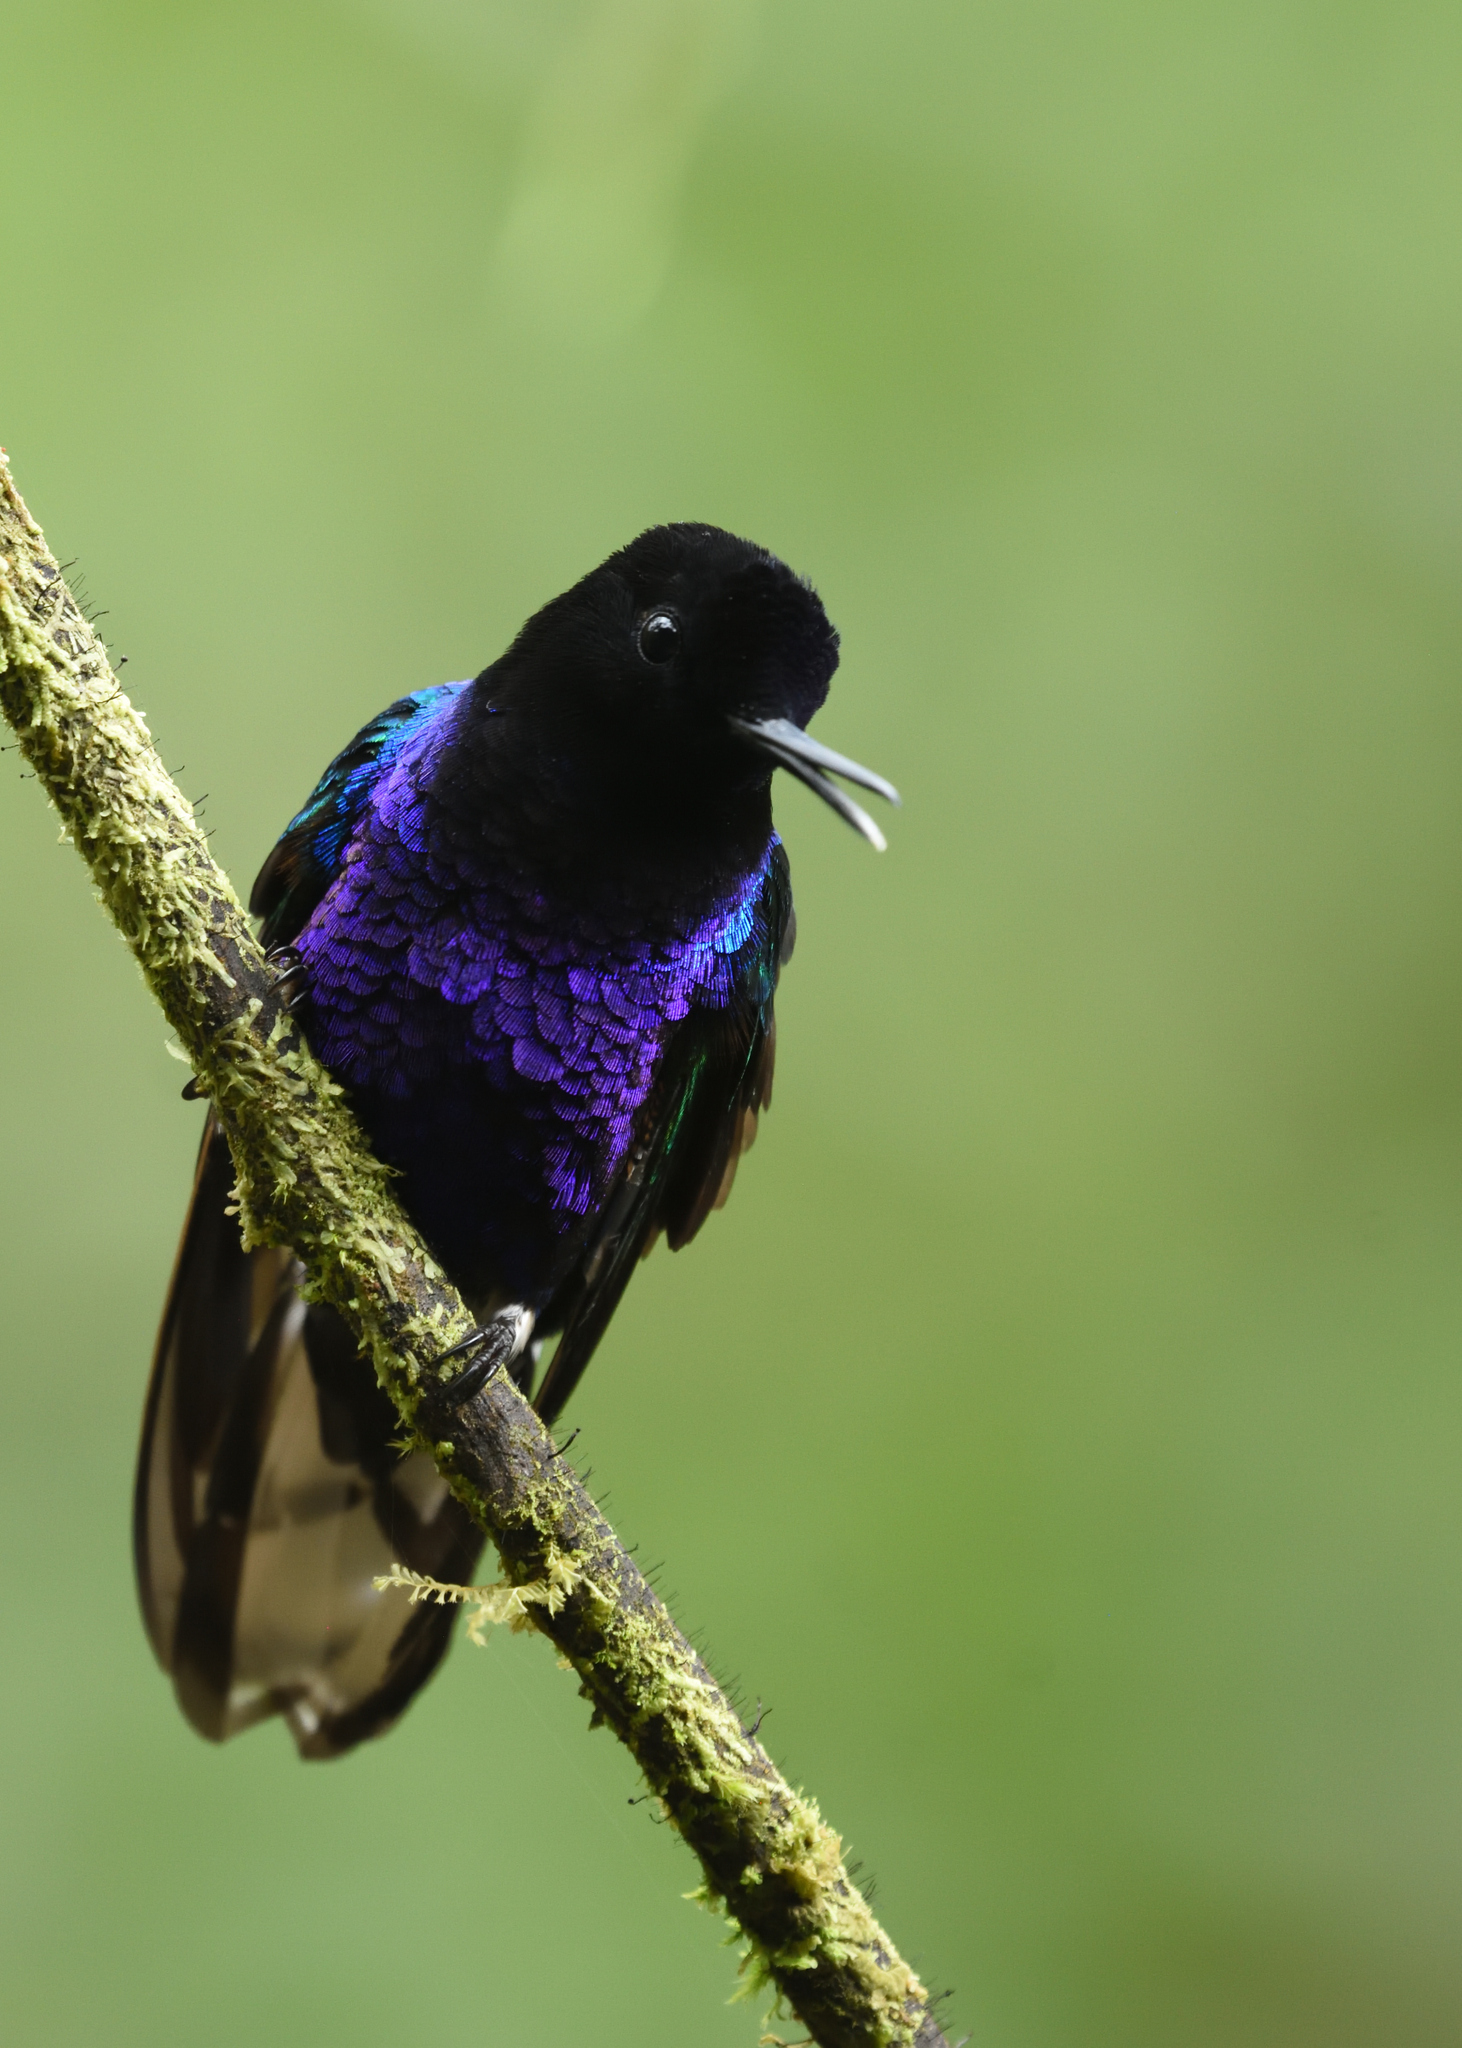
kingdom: Animalia
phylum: Chordata
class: Aves
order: Apodiformes
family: Trochilidae
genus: Boissonneaua
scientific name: Boissonneaua jardini
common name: Velvet-purple coronet
